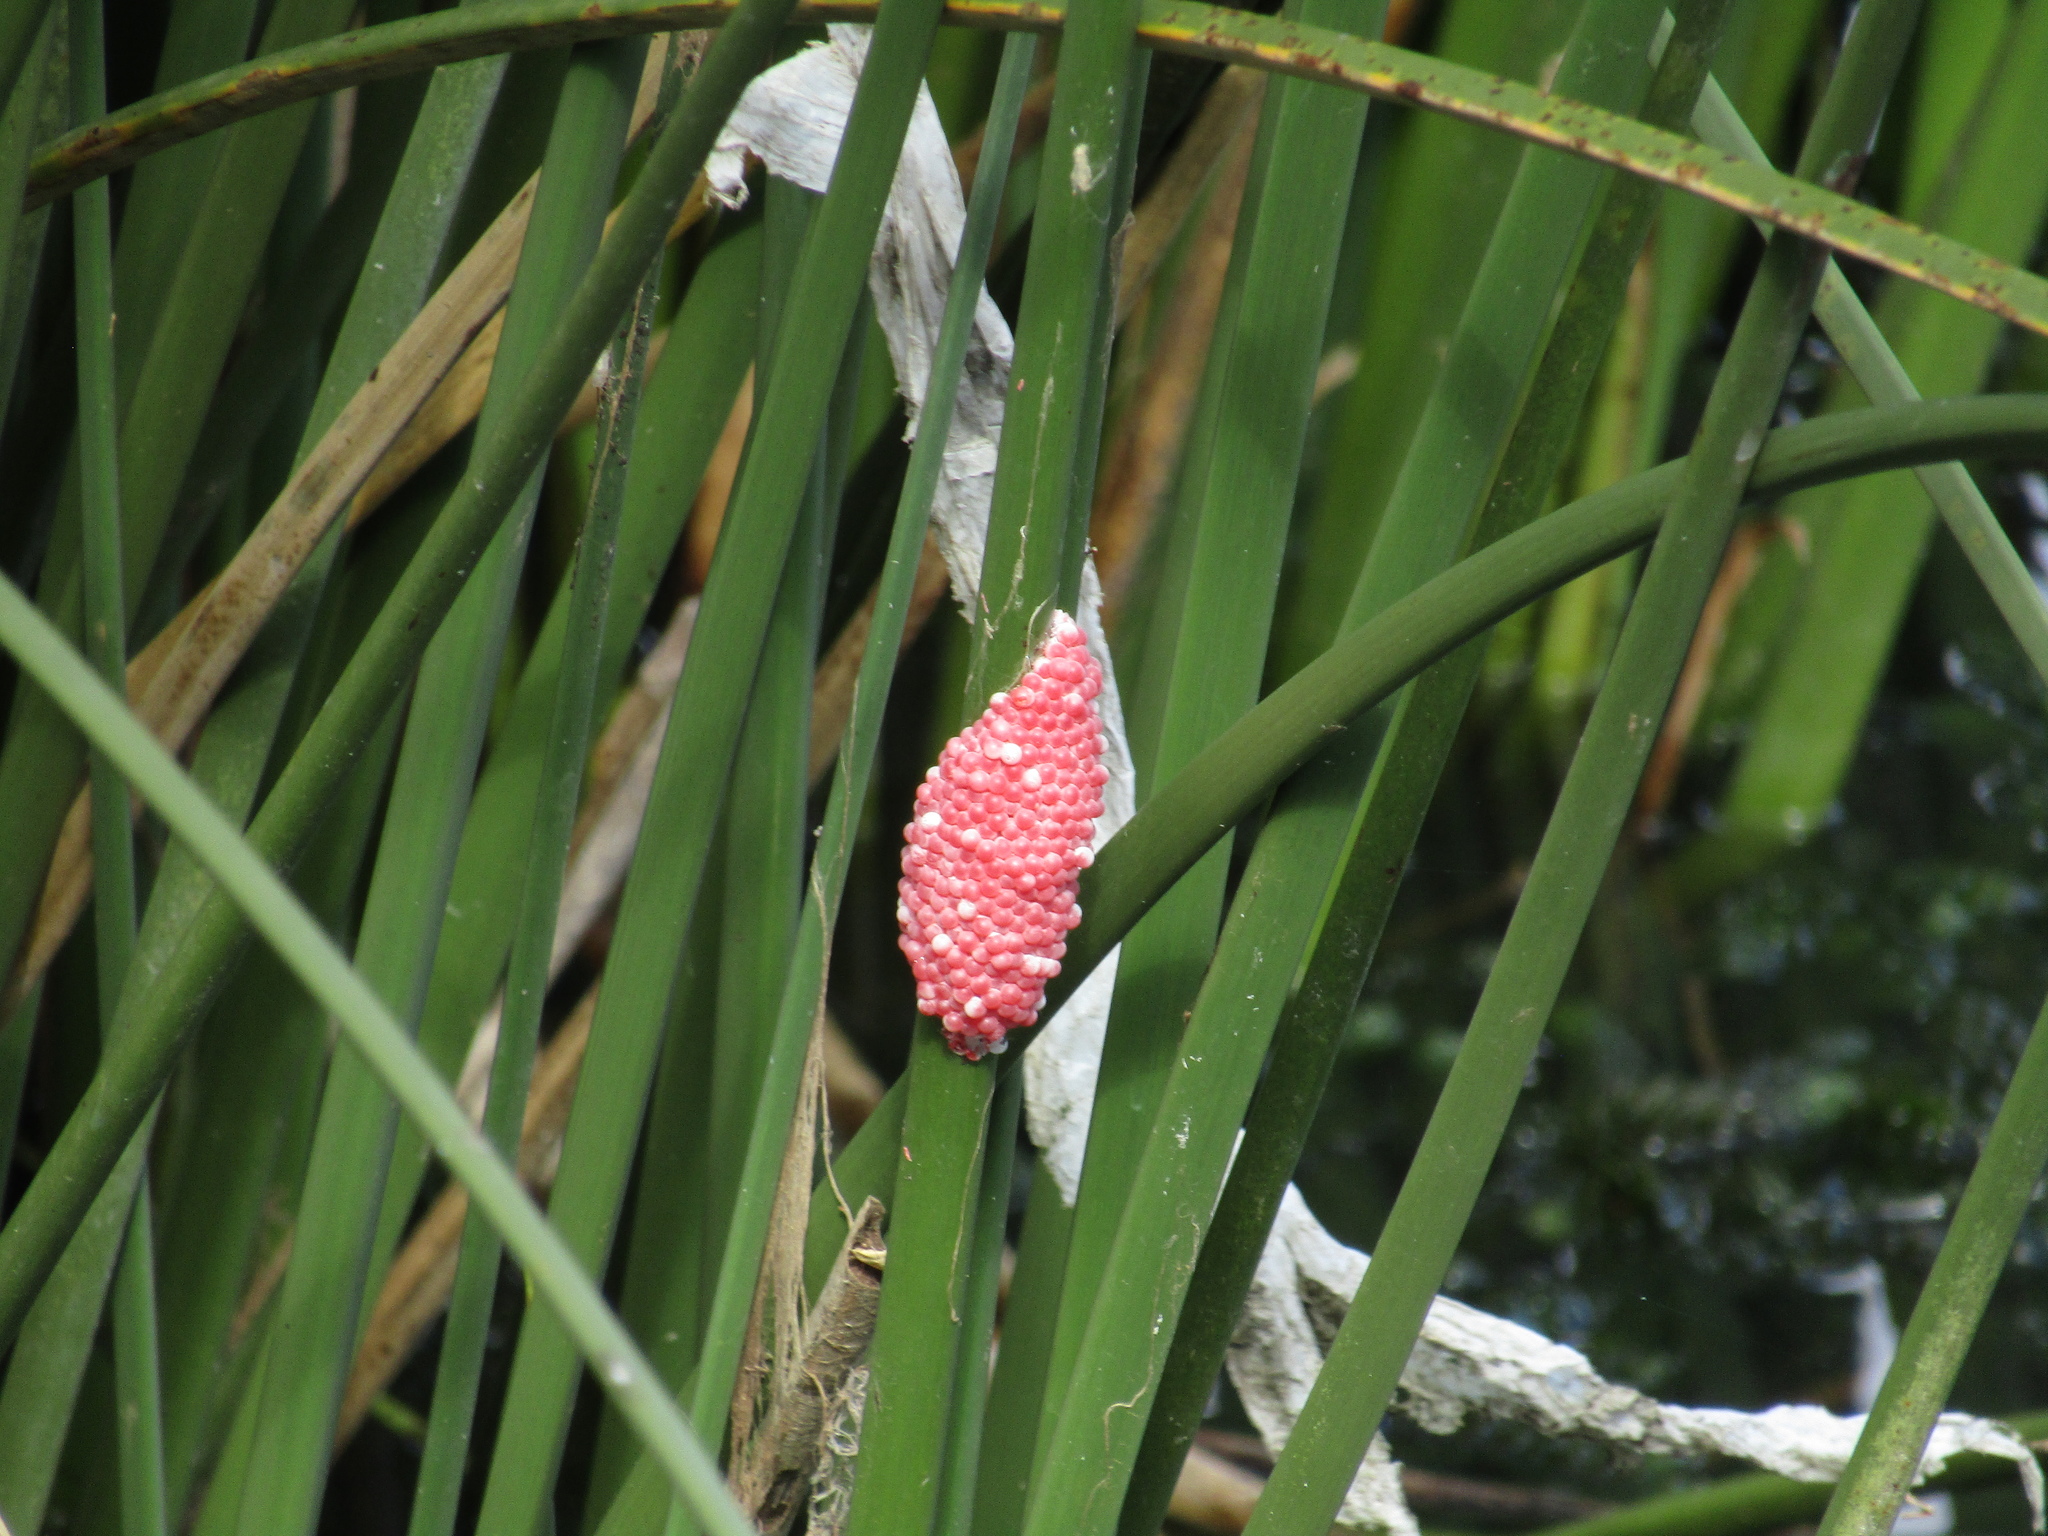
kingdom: Animalia
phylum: Mollusca
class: Gastropoda
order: Architaenioglossa
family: Ampullariidae
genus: Pomacea
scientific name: Pomacea canaliculata
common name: Channeled applesnail
